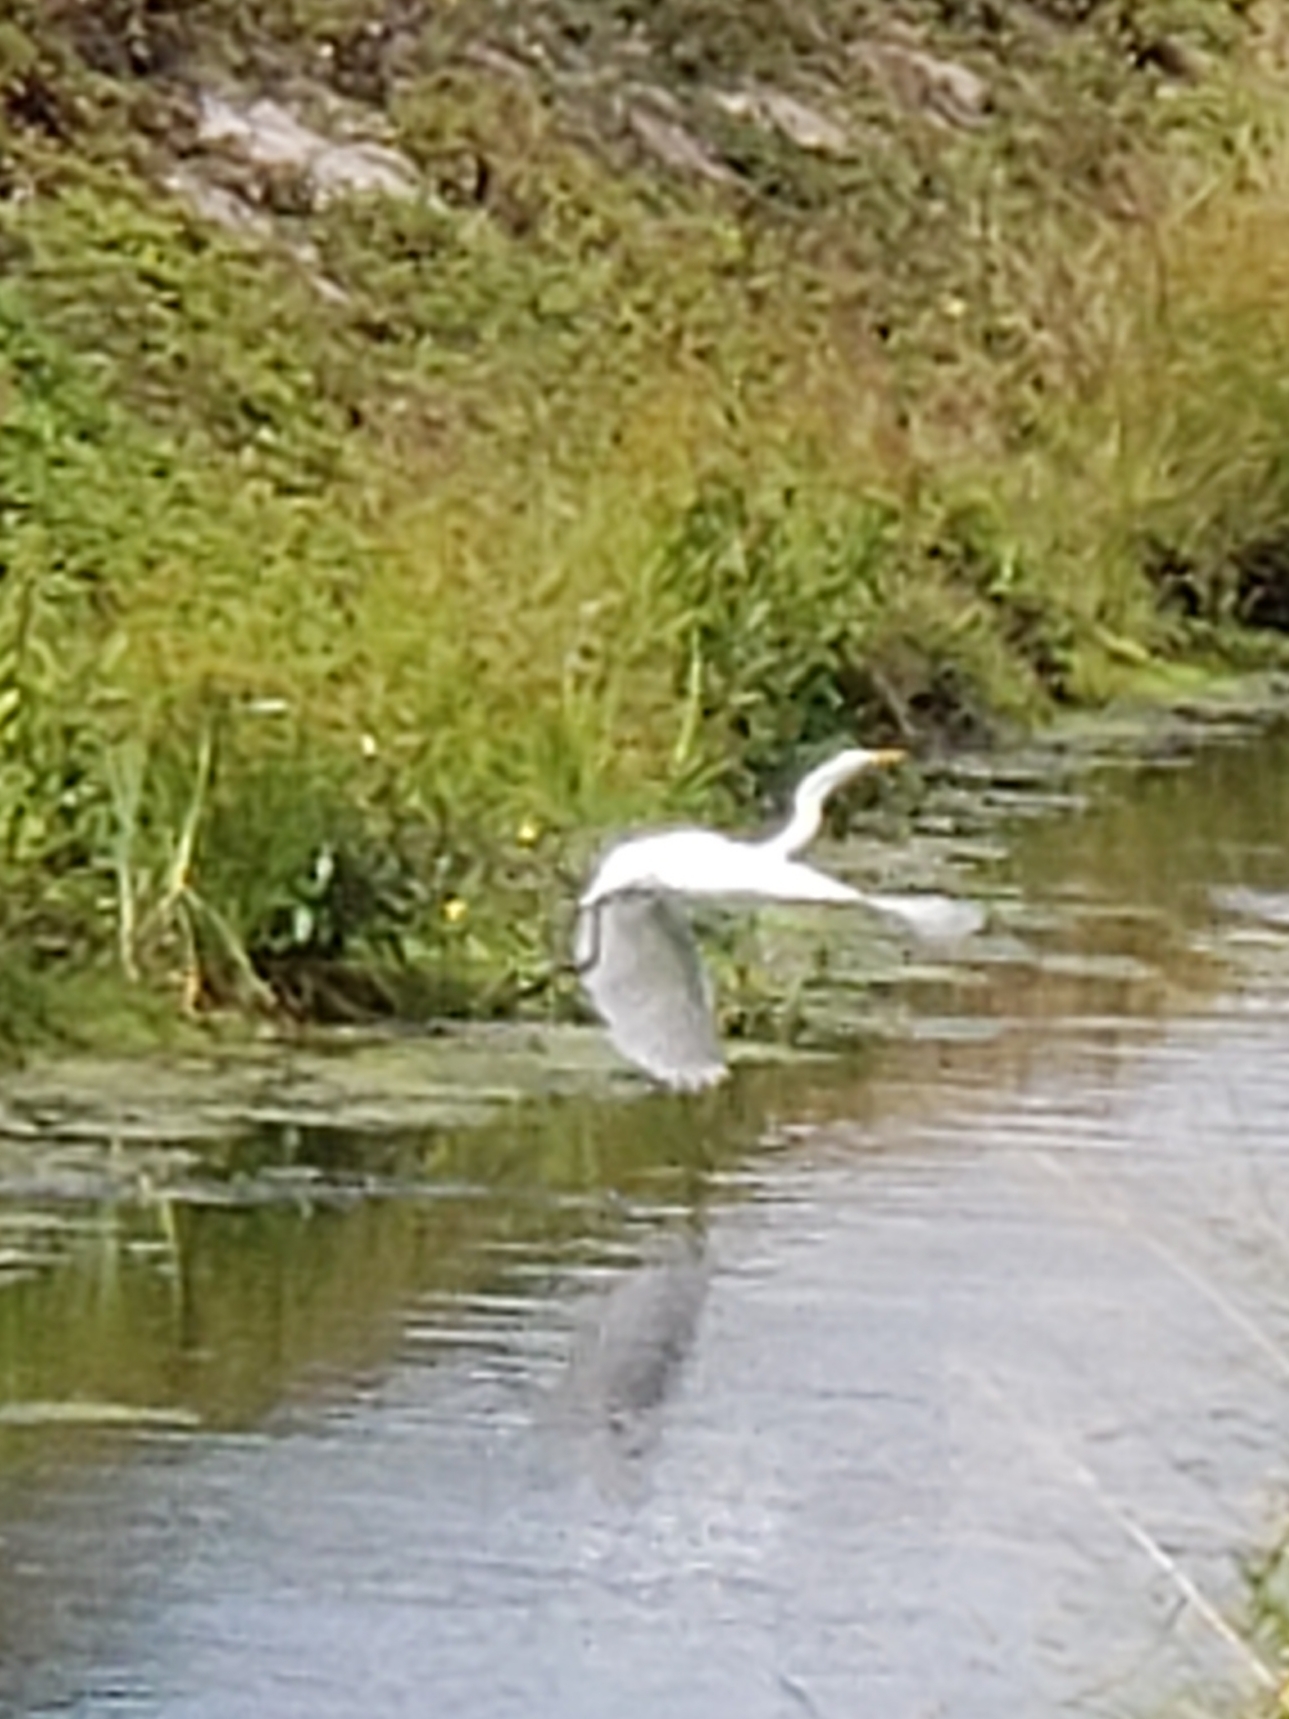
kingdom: Animalia
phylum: Chordata
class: Aves
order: Pelecaniformes
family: Ardeidae
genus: Ardea
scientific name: Ardea alba
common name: Great egret
